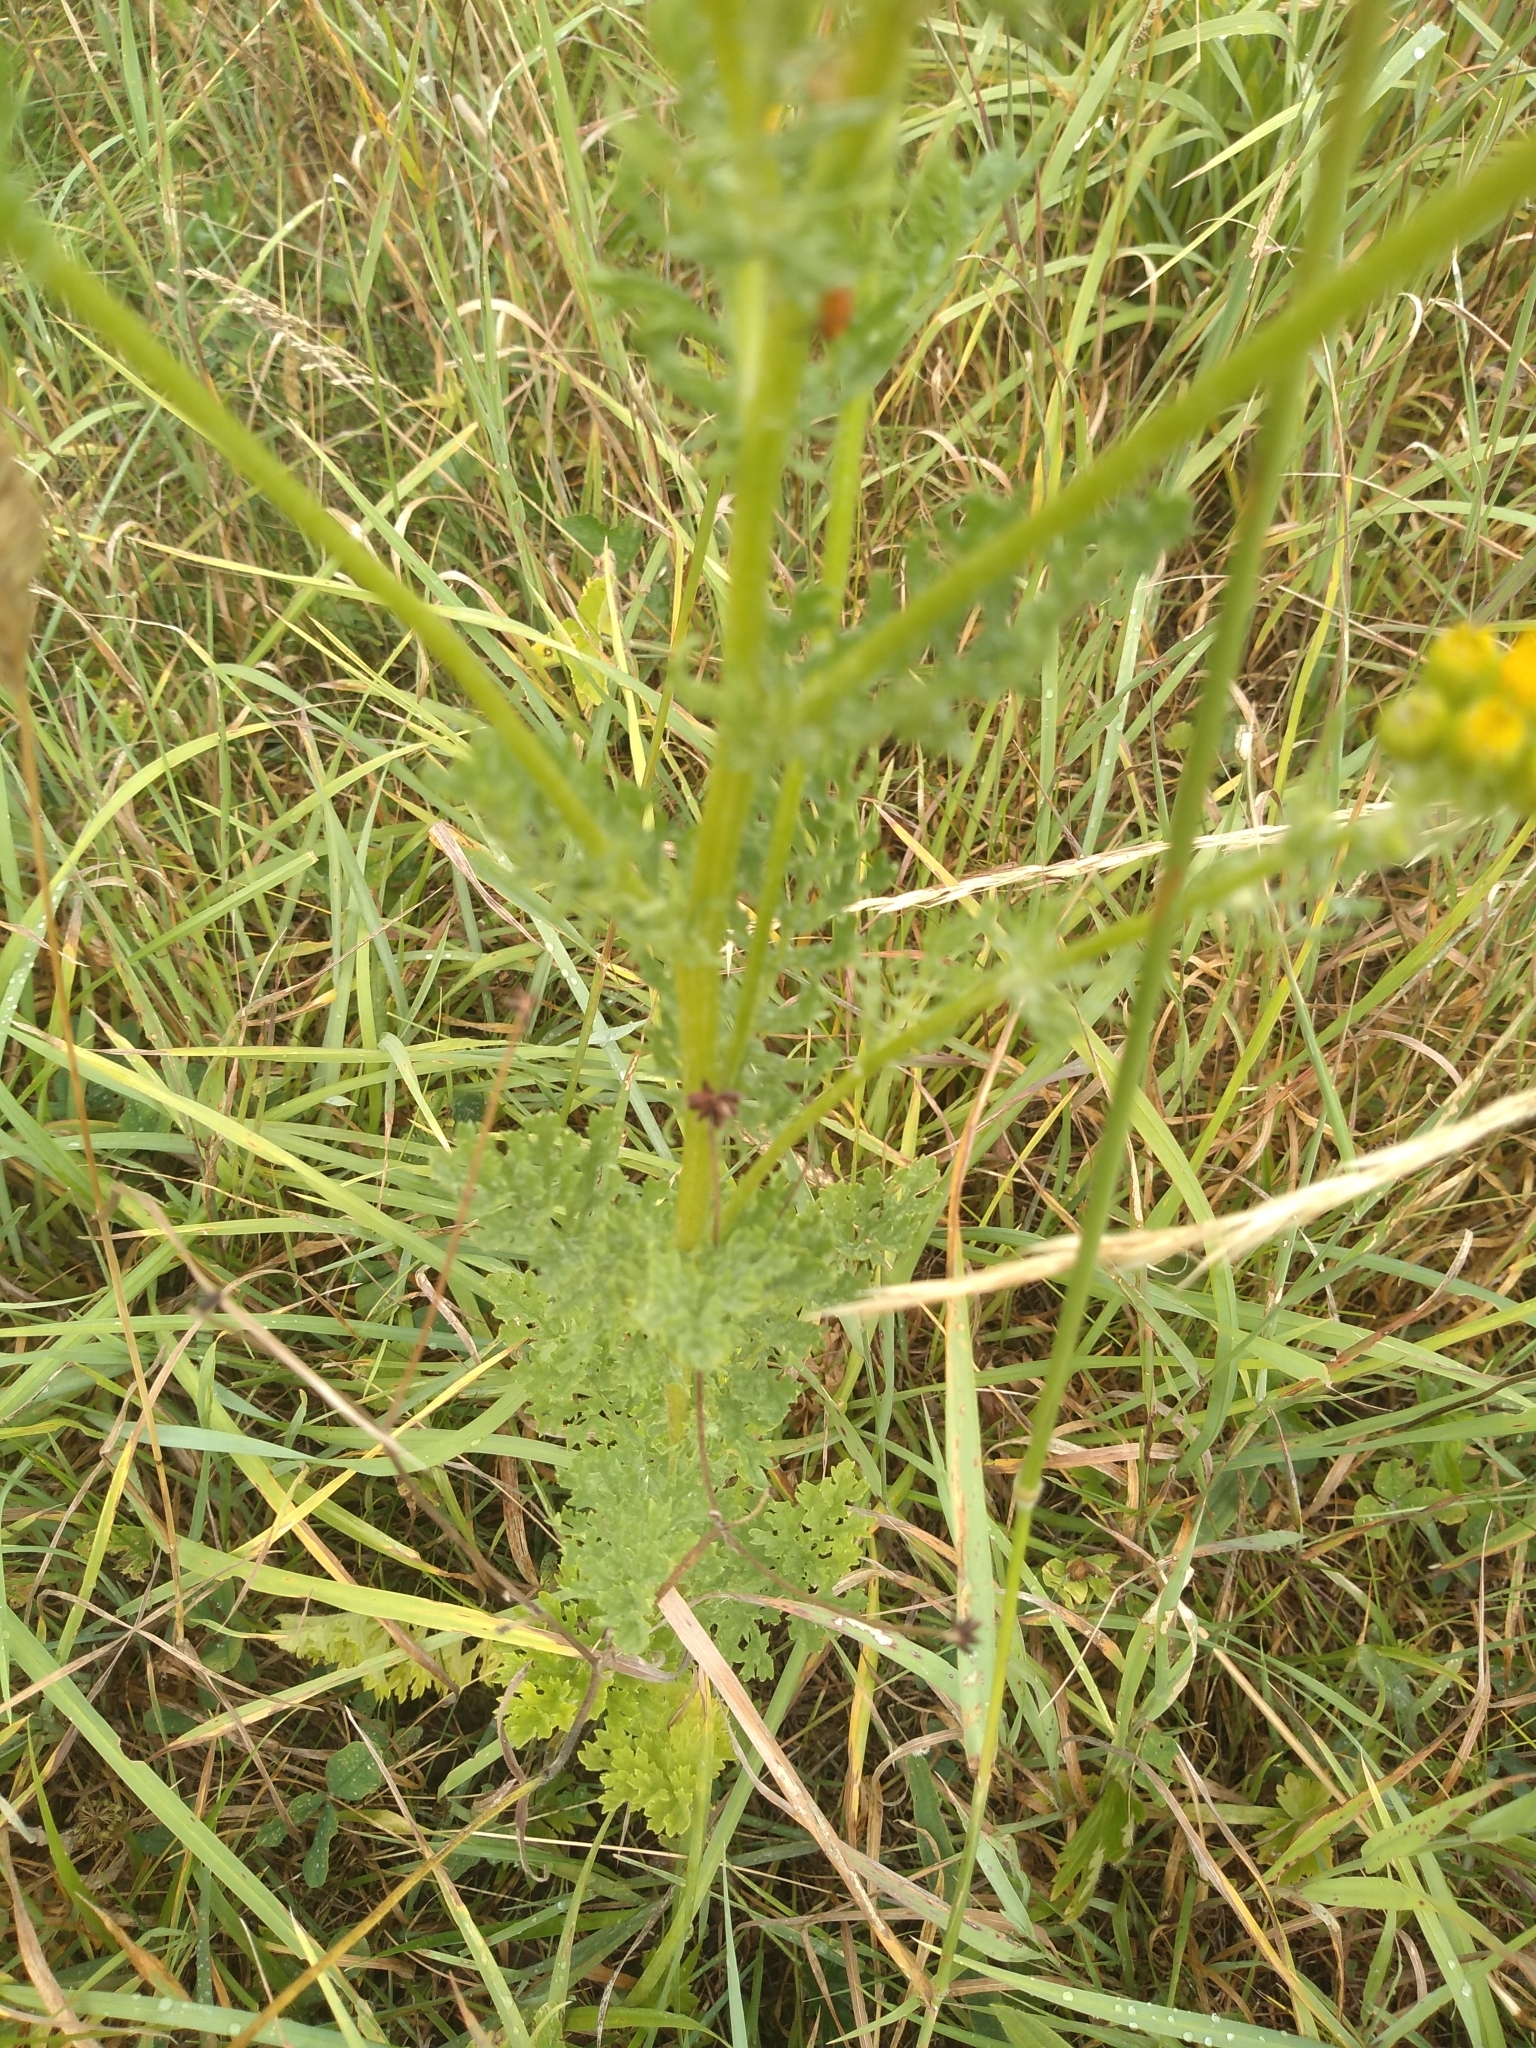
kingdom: Plantae
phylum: Tracheophyta
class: Magnoliopsida
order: Asterales
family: Asteraceae
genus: Jacobaea
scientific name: Jacobaea vulgaris
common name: Stinking willie
